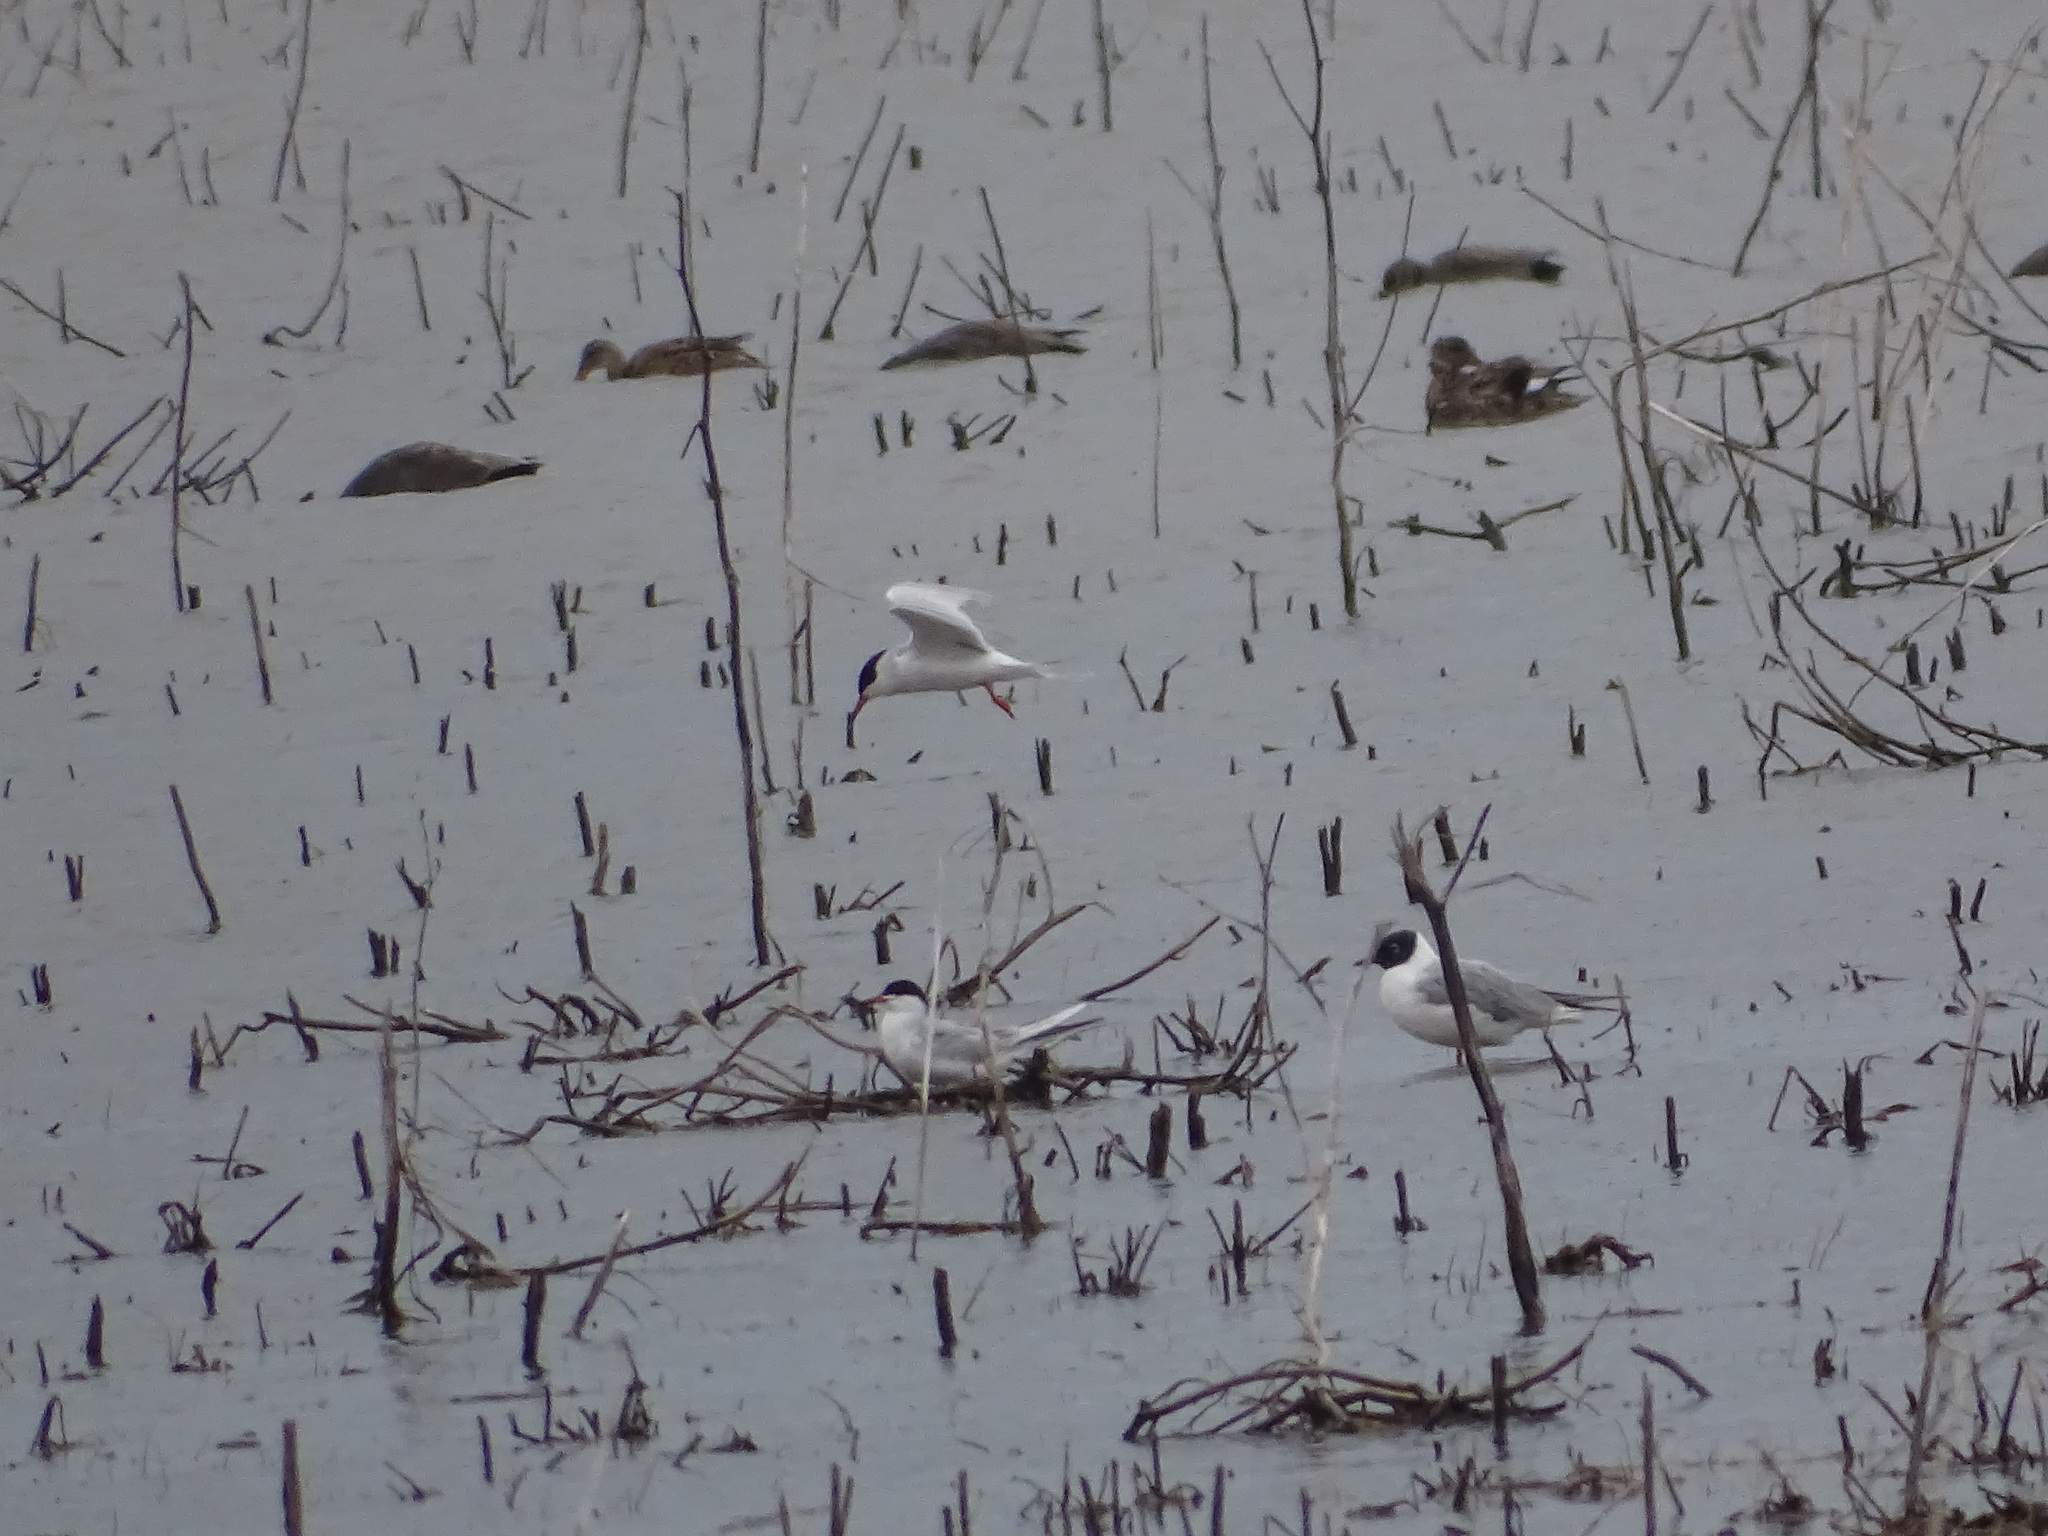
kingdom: Animalia
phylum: Chordata
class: Aves
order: Charadriiformes
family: Laridae
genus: Sterna
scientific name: Sterna forsteri
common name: Forster's tern
